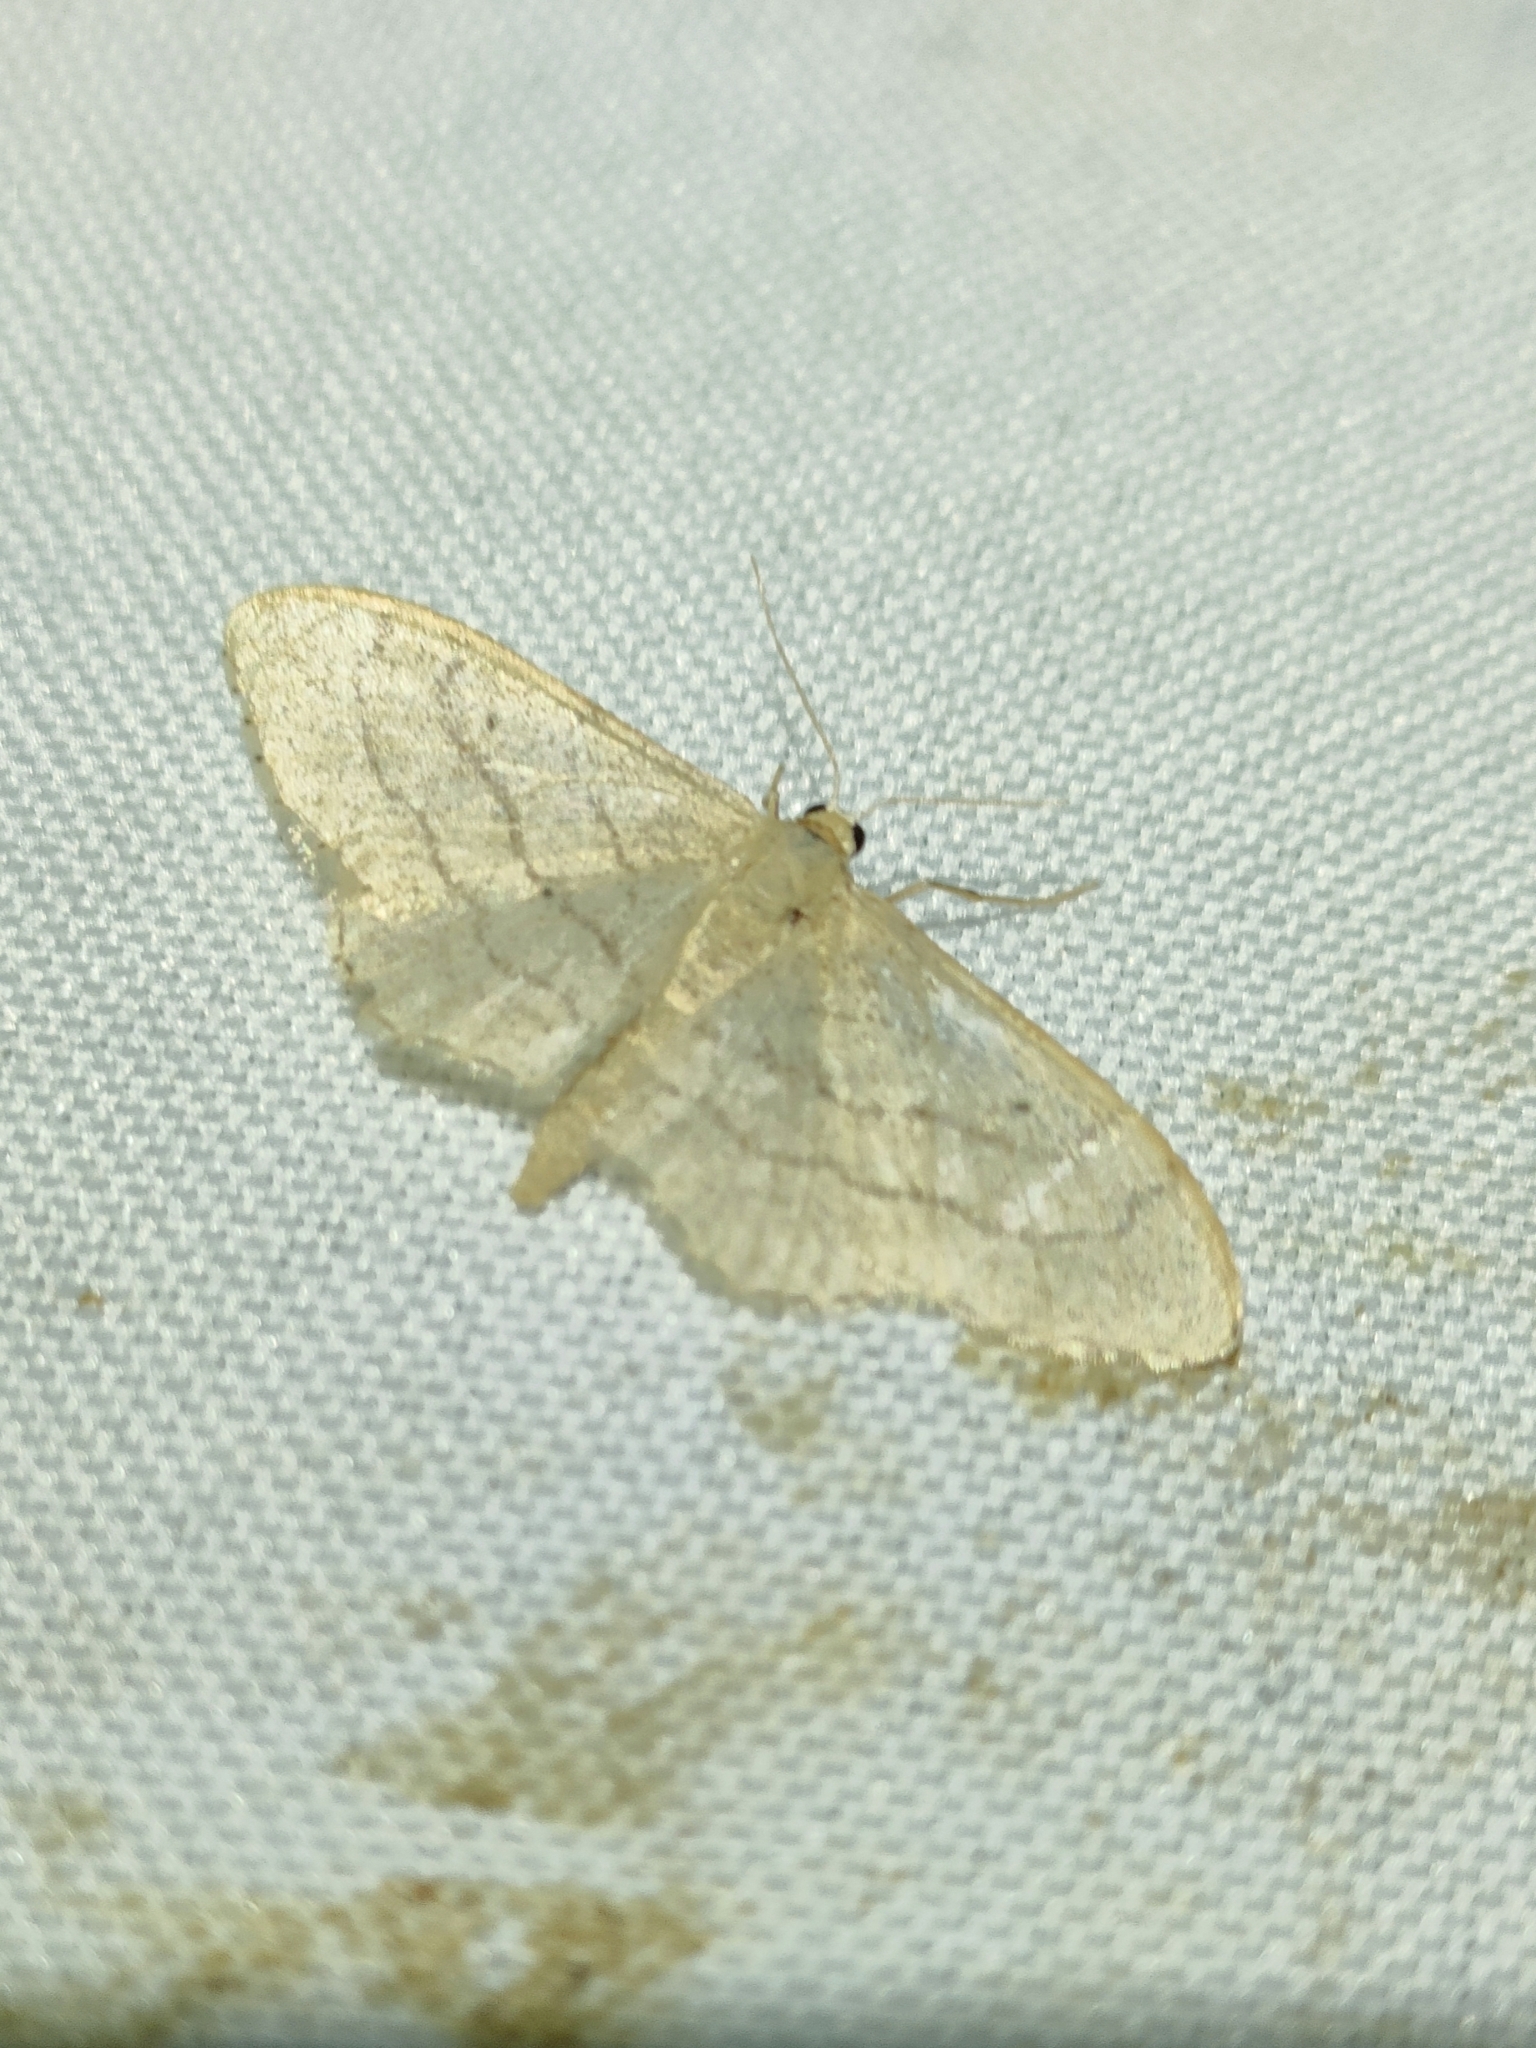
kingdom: Animalia
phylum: Arthropoda
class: Insecta
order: Lepidoptera
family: Geometridae
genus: Idaea
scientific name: Idaea aversata
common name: Riband wave
